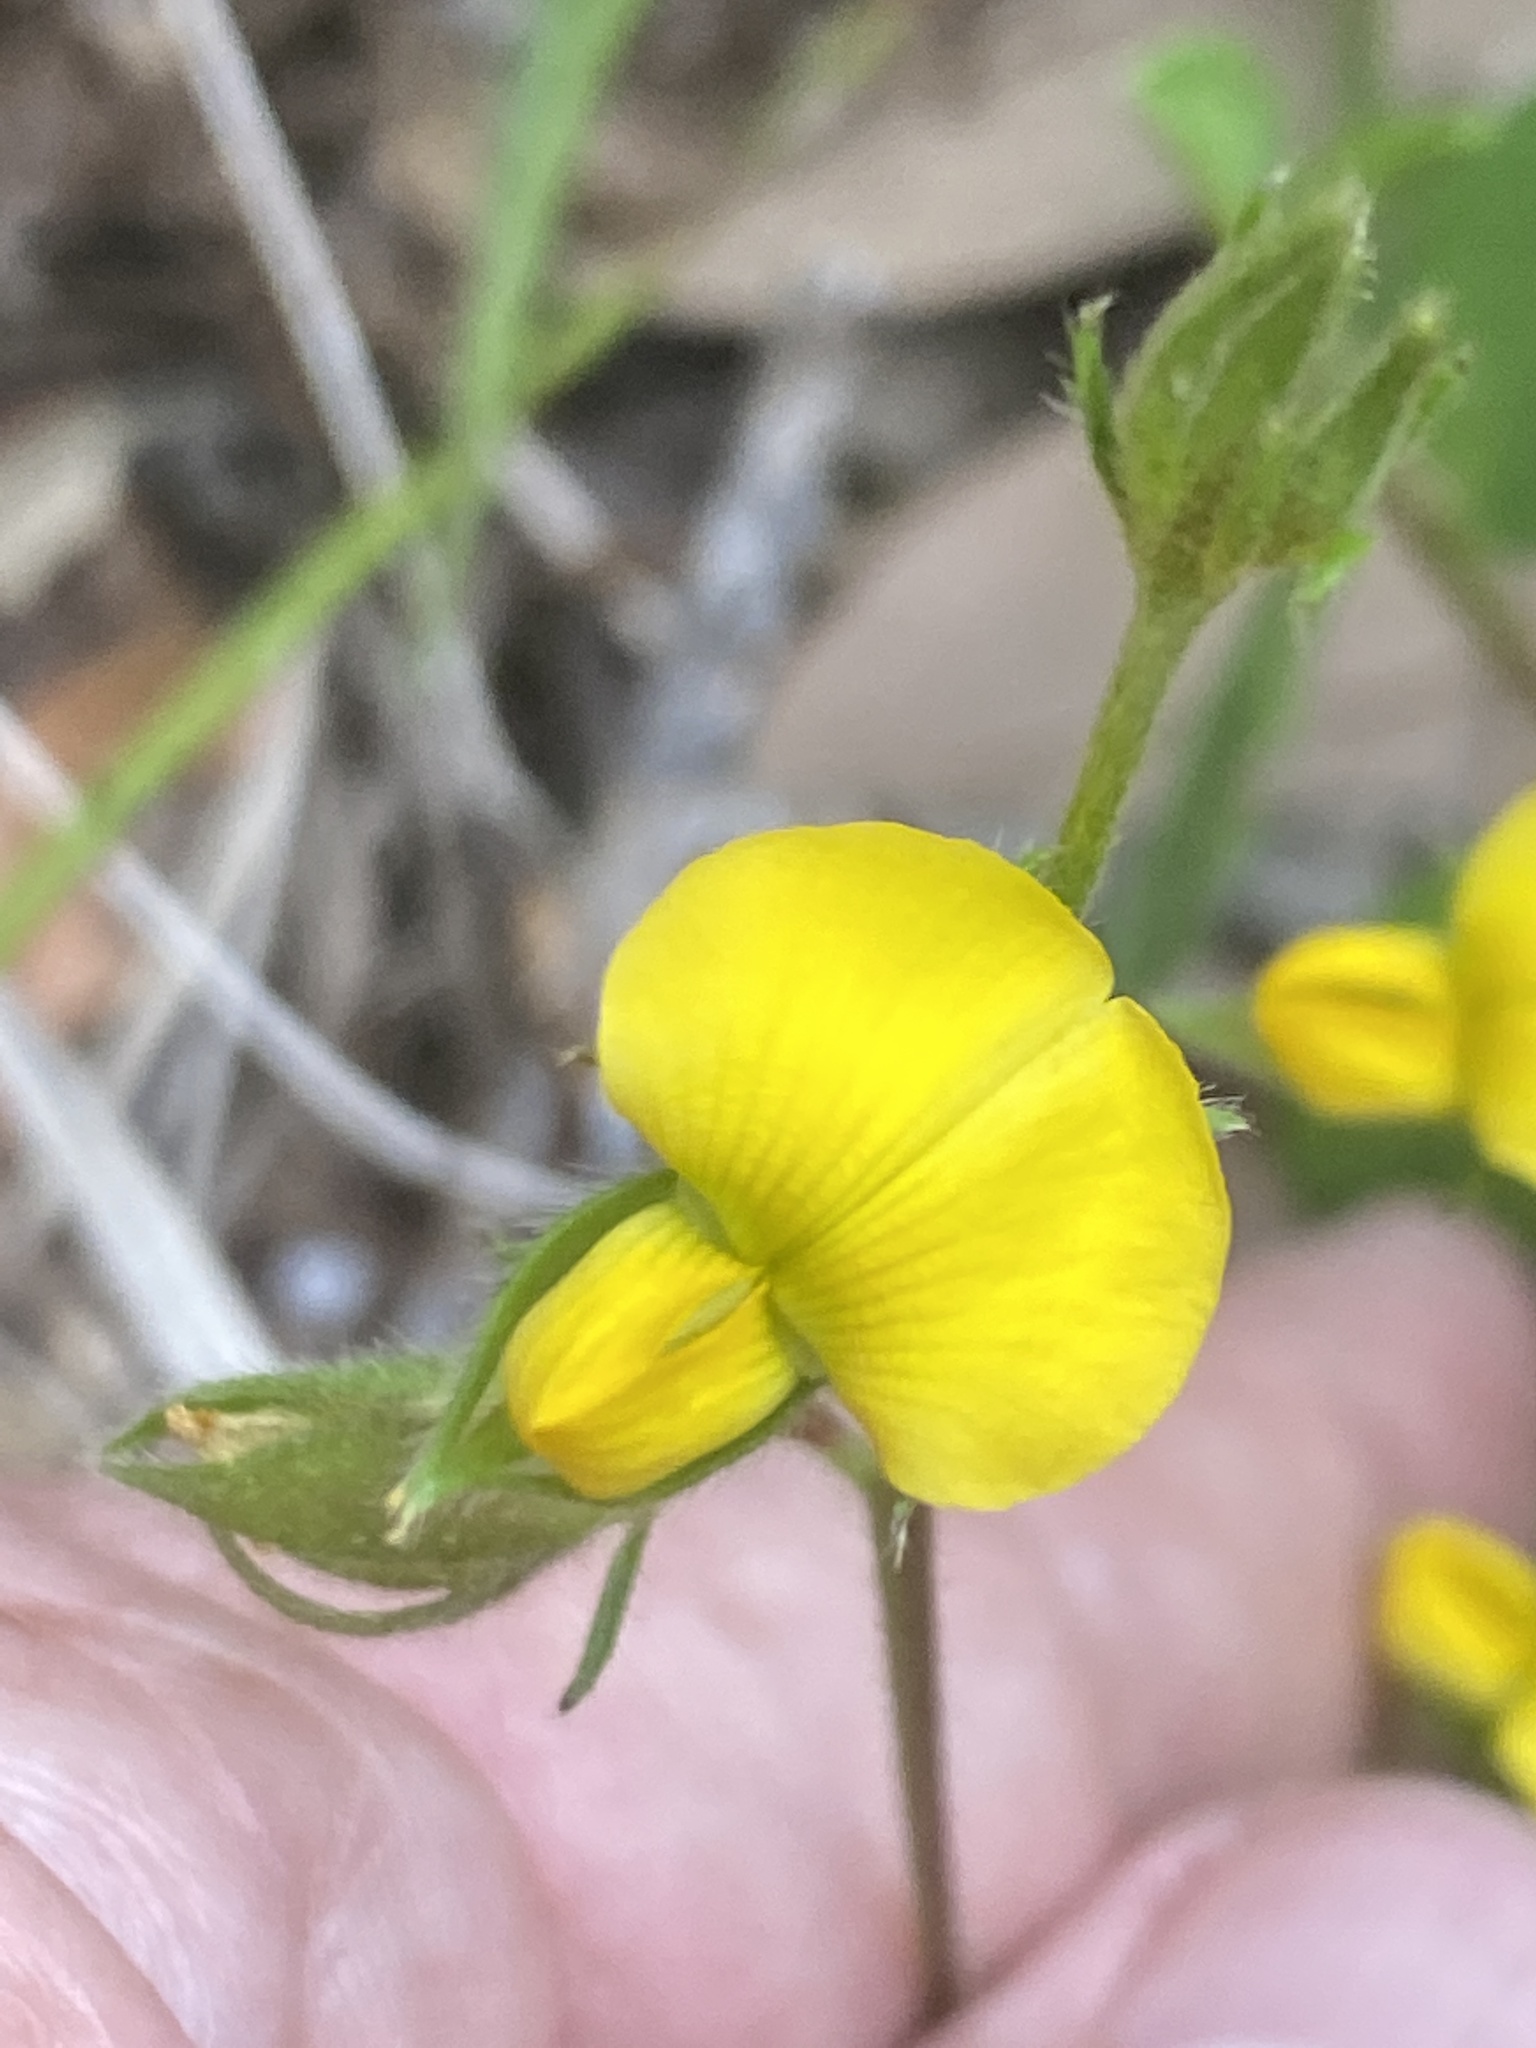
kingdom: Plantae
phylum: Tracheophyta
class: Magnoliopsida
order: Fabales
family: Fabaceae
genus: Crotalaria
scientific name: Crotalaria rotundifolia
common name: Prostrate rattlebox
